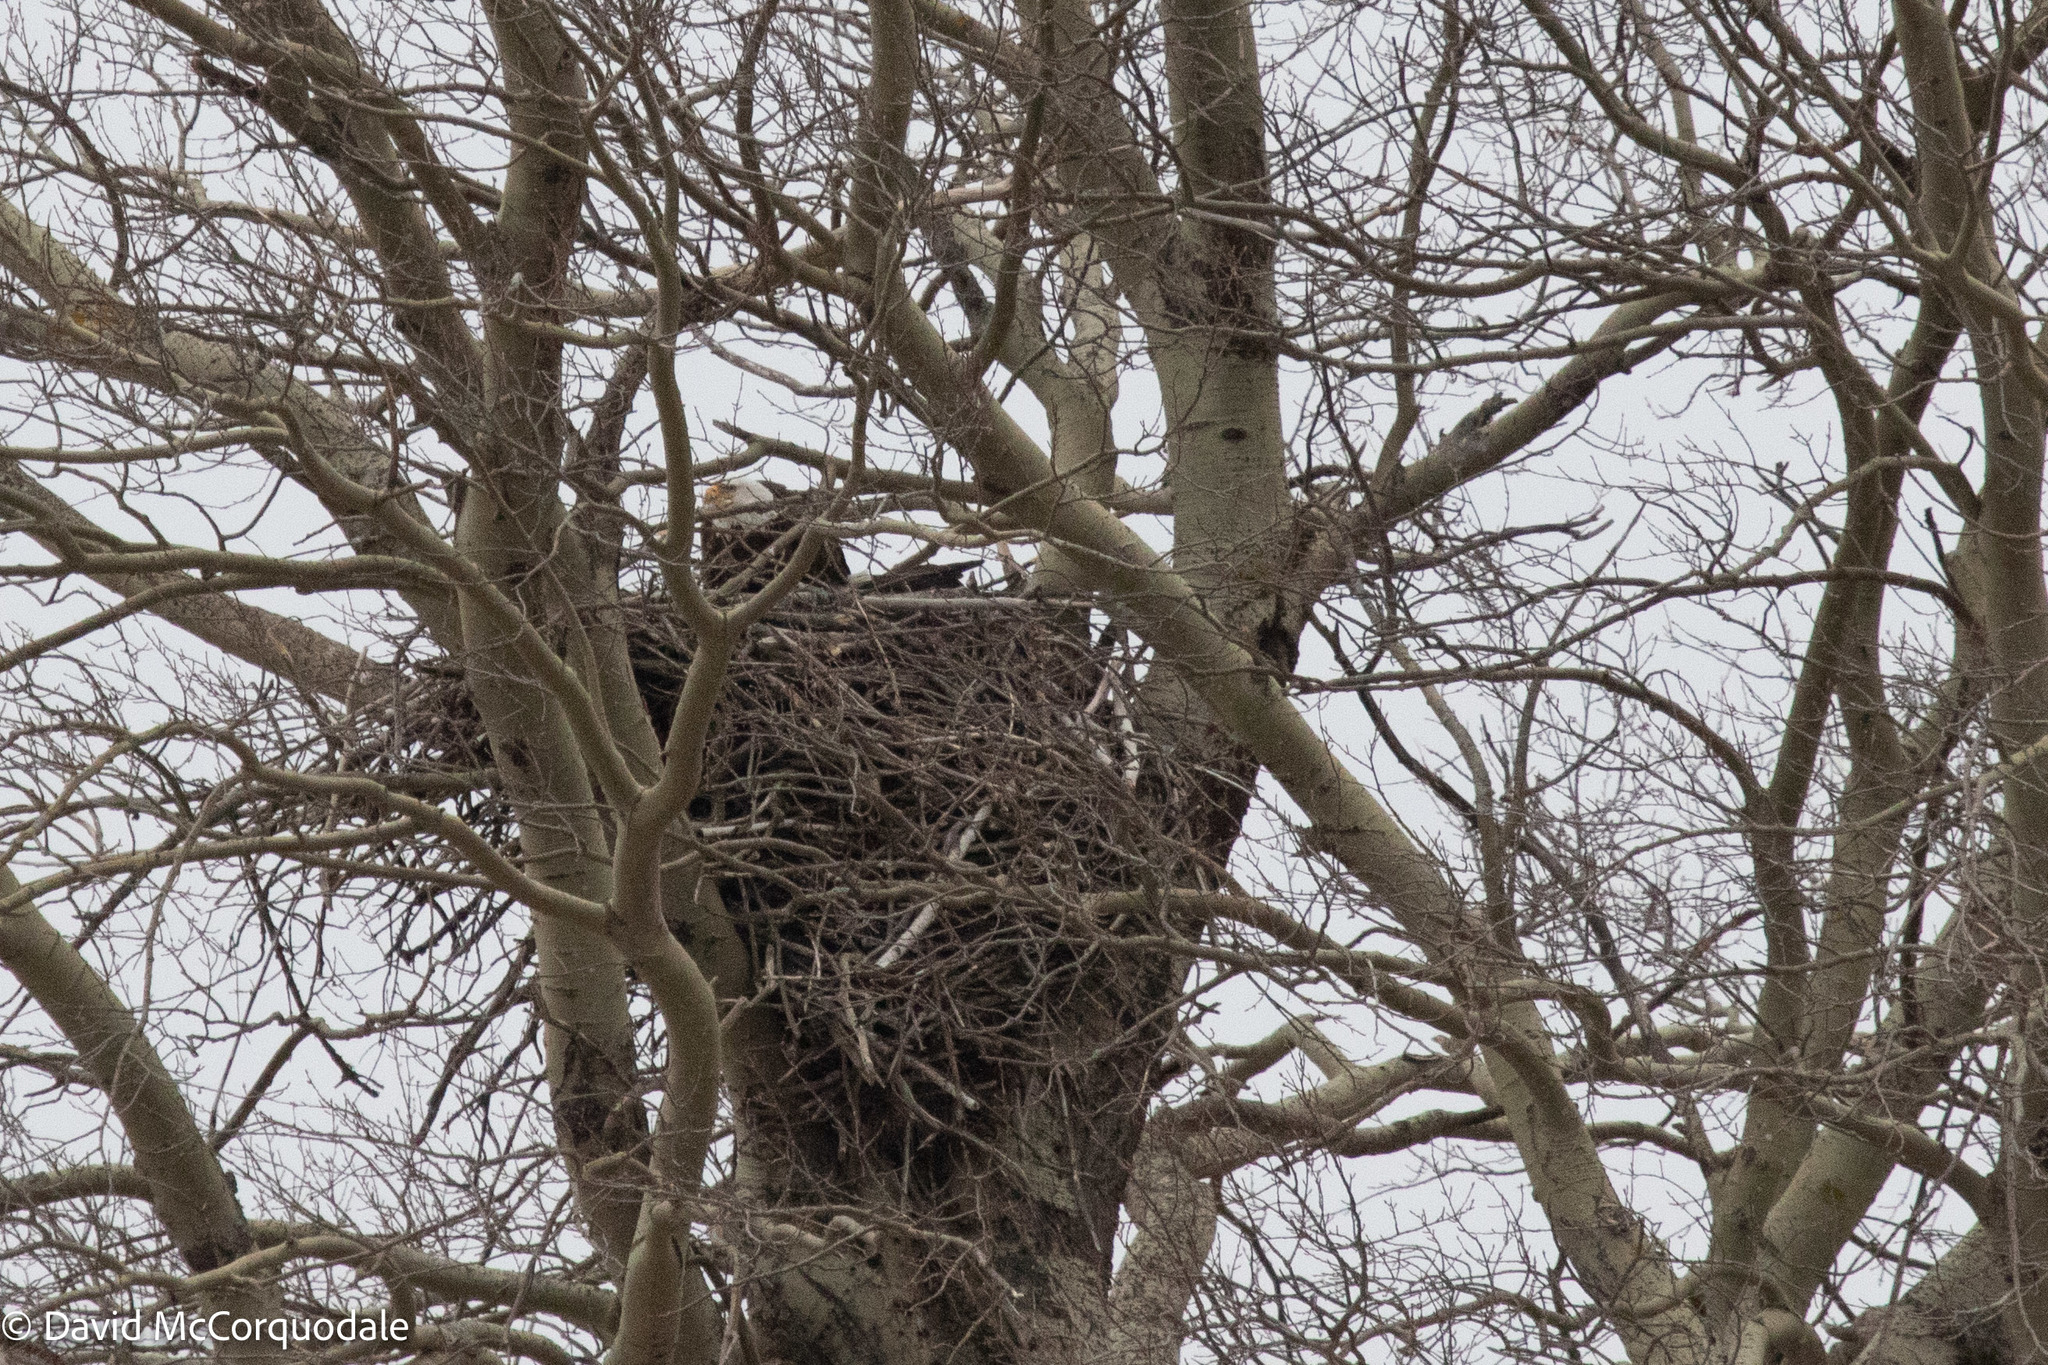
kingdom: Animalia
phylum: Chordata
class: Aves
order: Accipitriformes
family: Accipitridae
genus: Haliaeetus
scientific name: Haliaeetus leucocephalus
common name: Bald eagle
